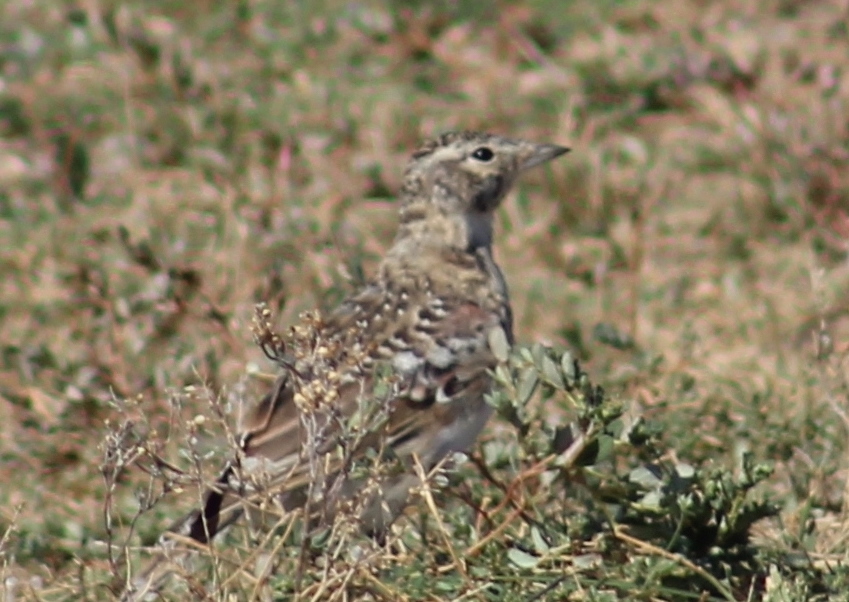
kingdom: Animalia
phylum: Chordata
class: Aves
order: Passeriformes
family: Alaudidae
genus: Eremophila
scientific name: Eremophila alpestris
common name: Horned lark
